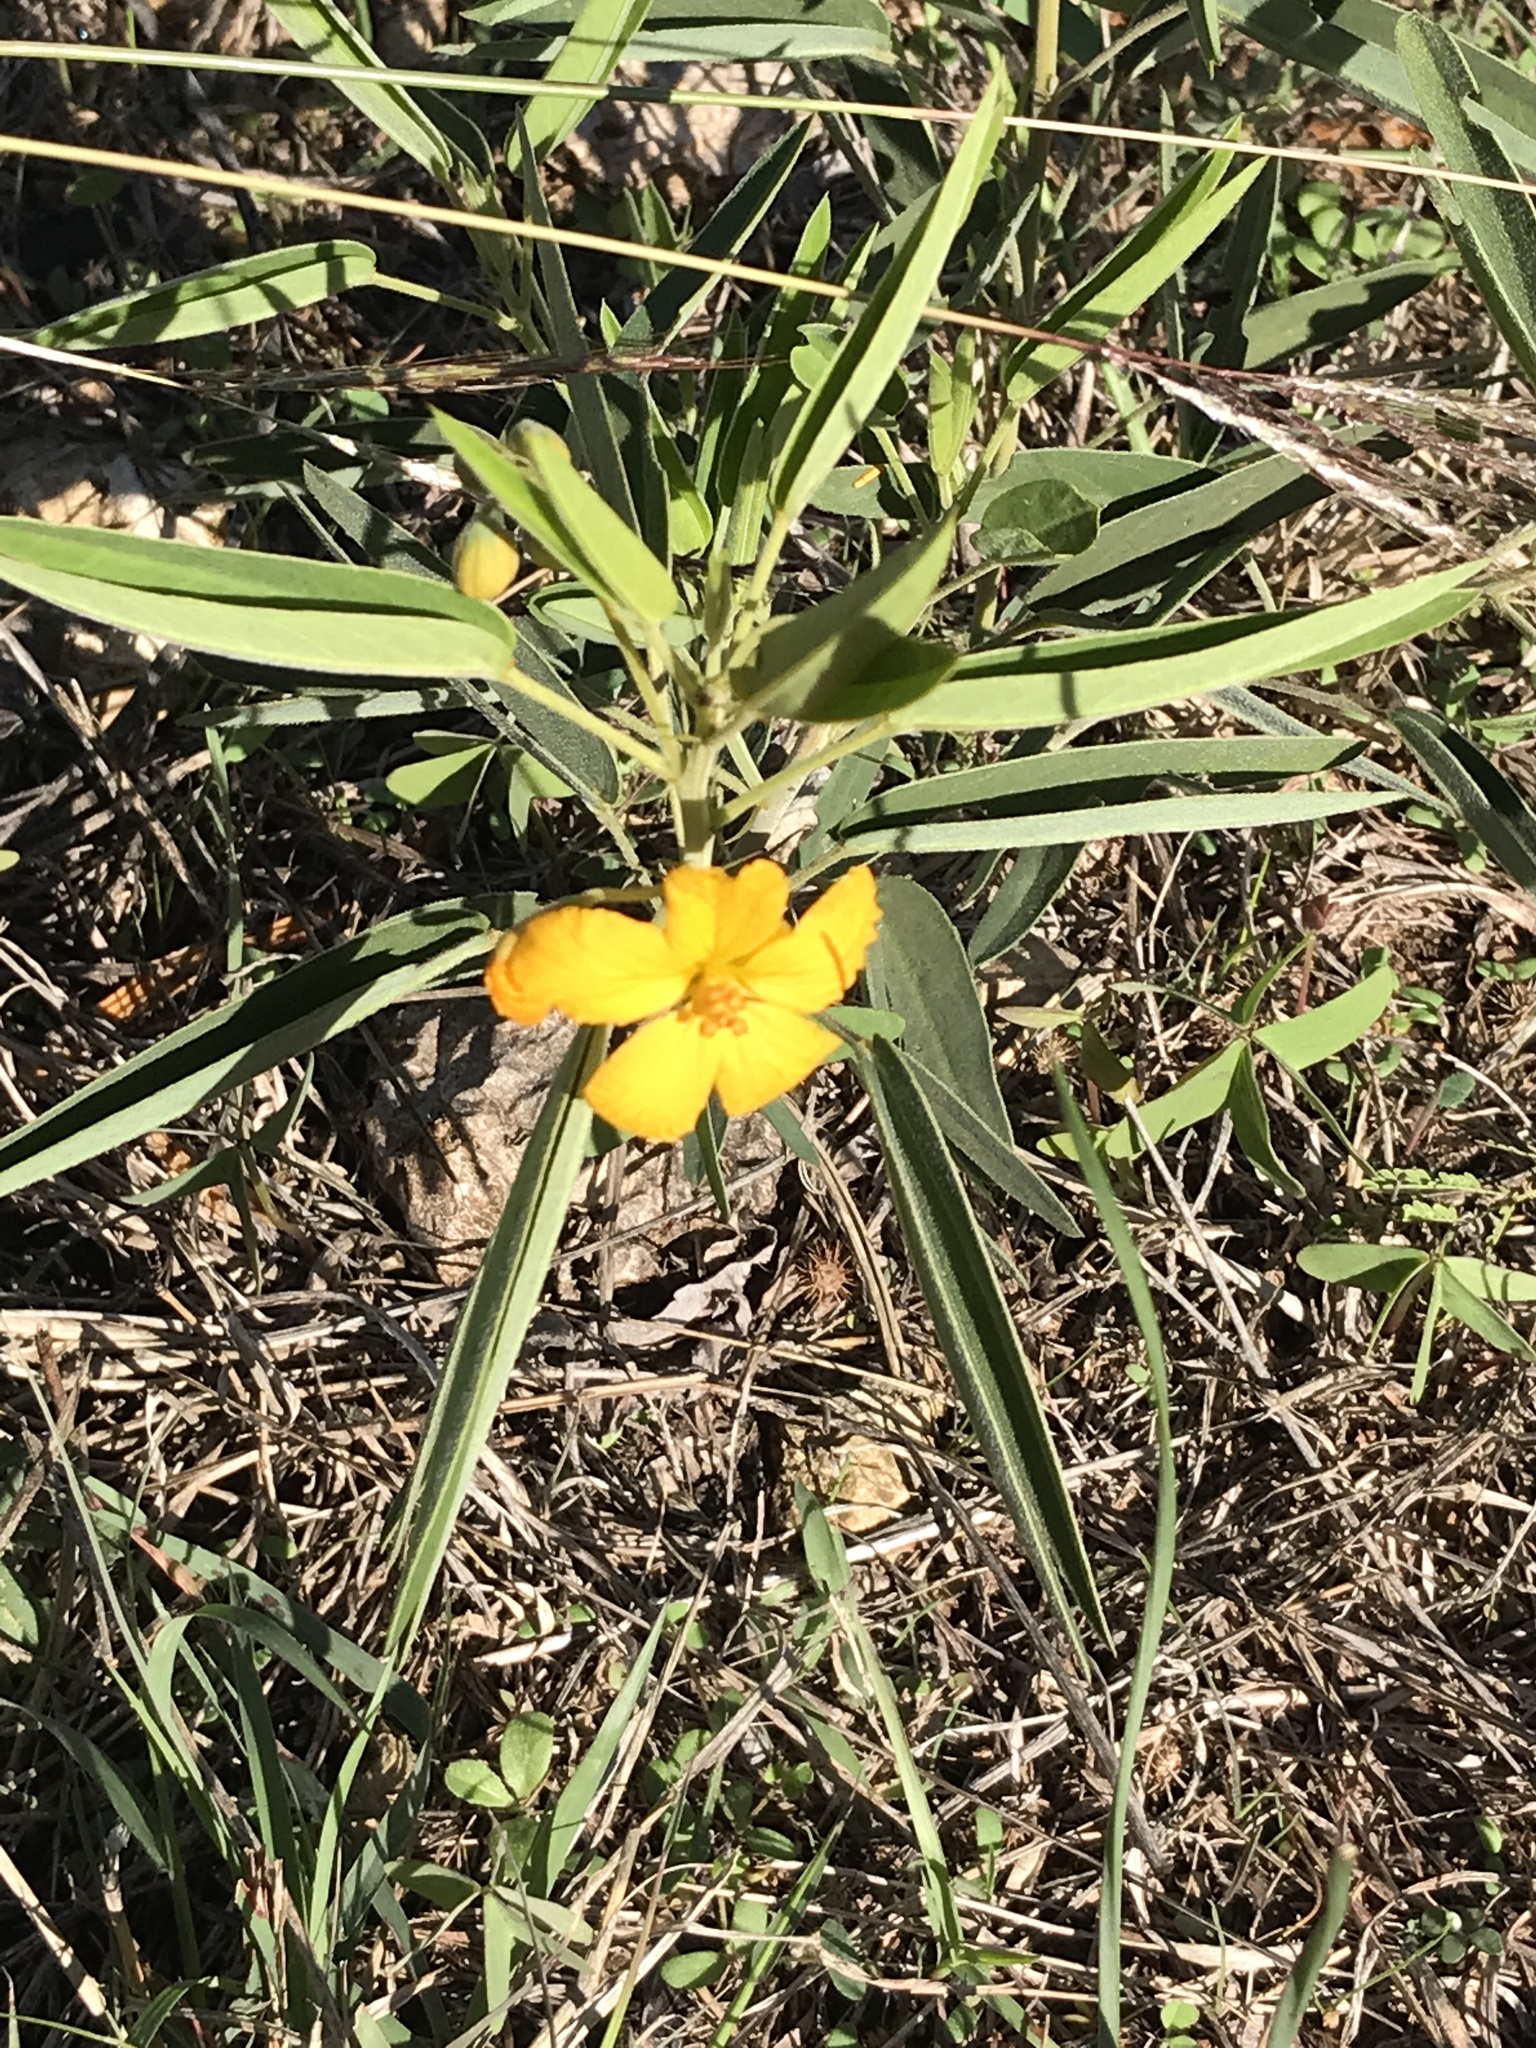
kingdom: Plantae
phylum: Tracheophyta
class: Magnoliopsida
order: Fabales
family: Fabaceae
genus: Senna
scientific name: Senna roemeriana
